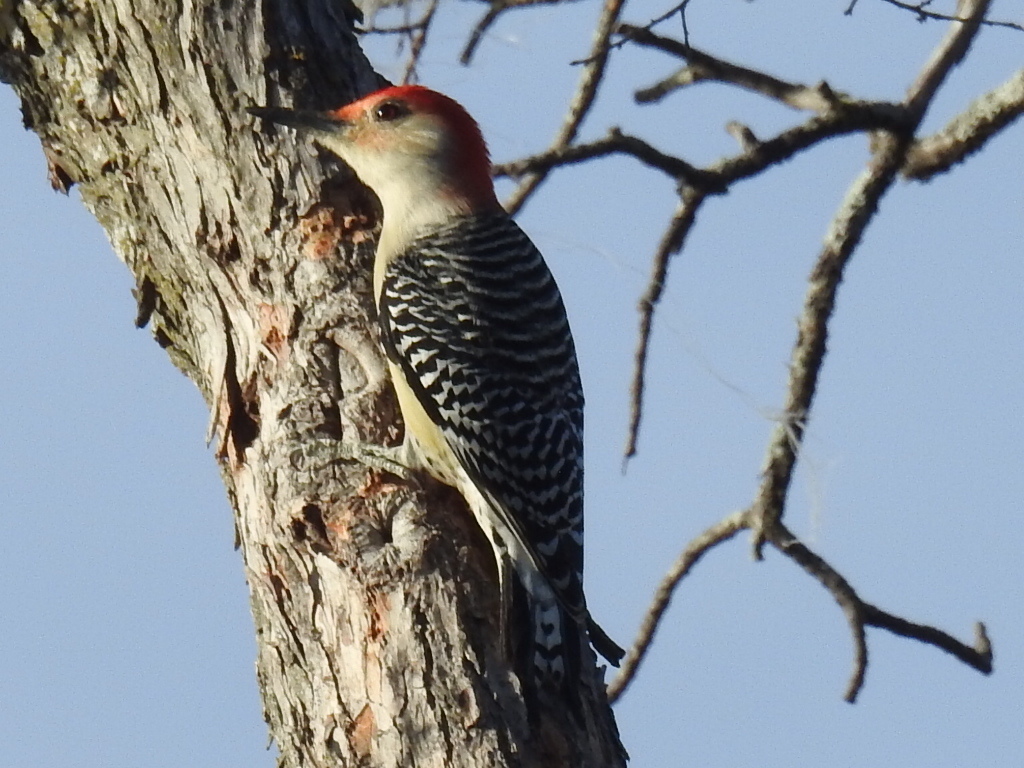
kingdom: Animalia
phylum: Chordata
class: Aves
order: Piciformes
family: Picidae
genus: Melanerpes
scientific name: Melanerpes carolinus
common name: Red-bellied woodpecker
